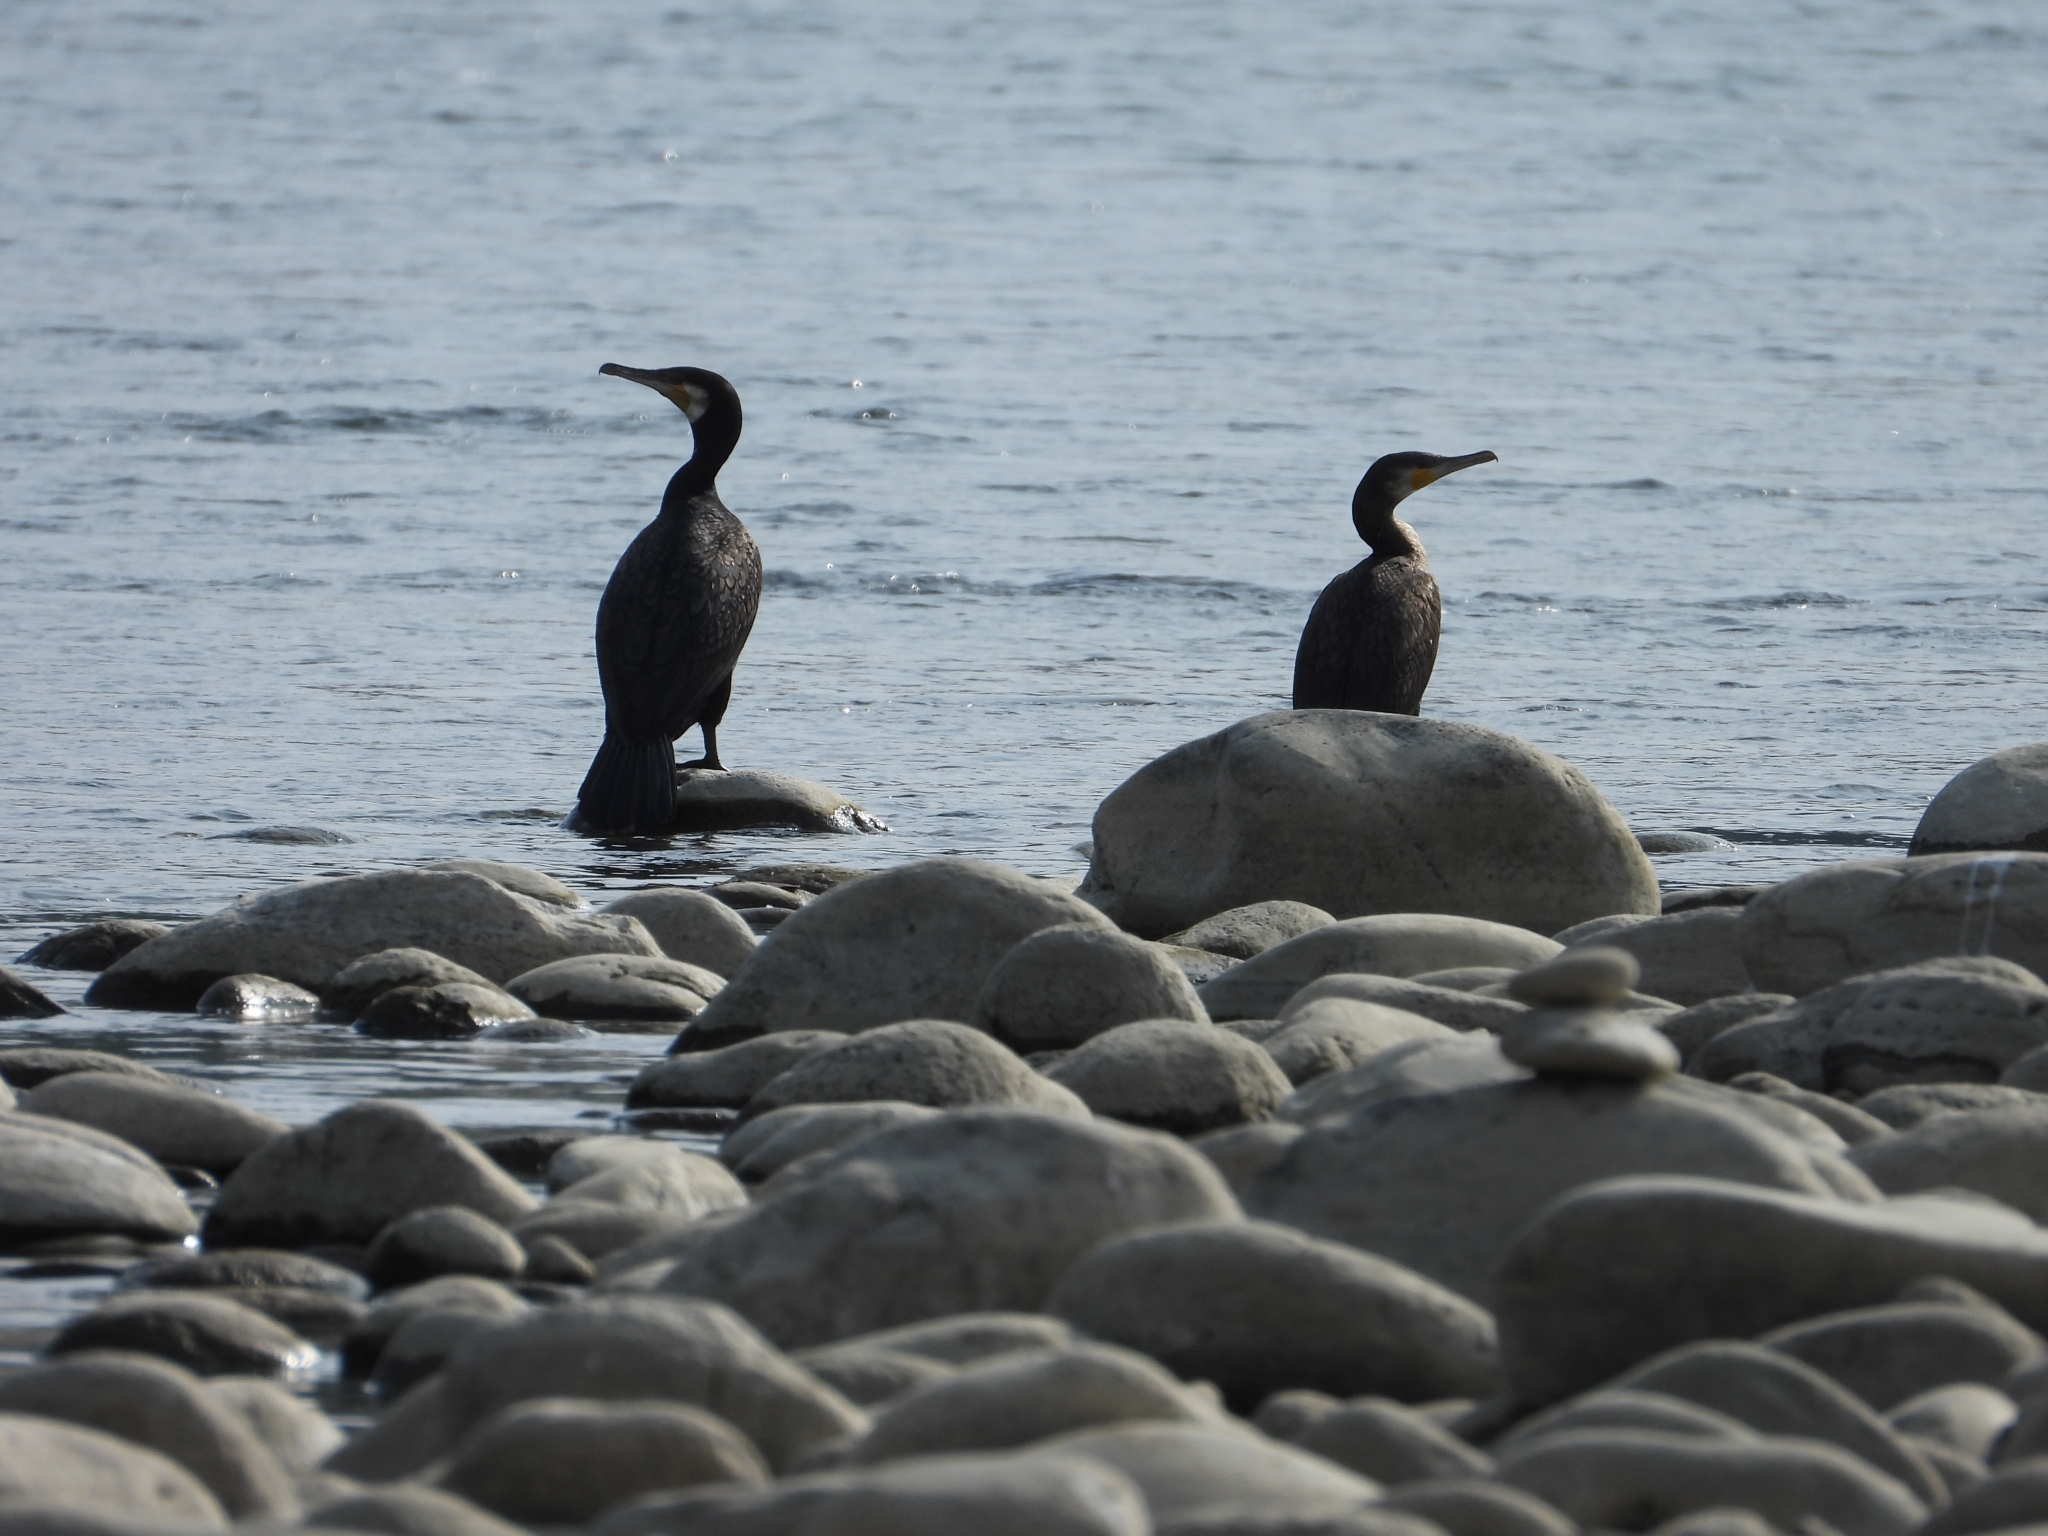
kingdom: Animalia
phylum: Chordata
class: Aves
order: Suliformes
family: Phalacrocoracidae
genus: Phalacrocorax
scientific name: Phalacrocorax carbo
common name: Great cormorant
